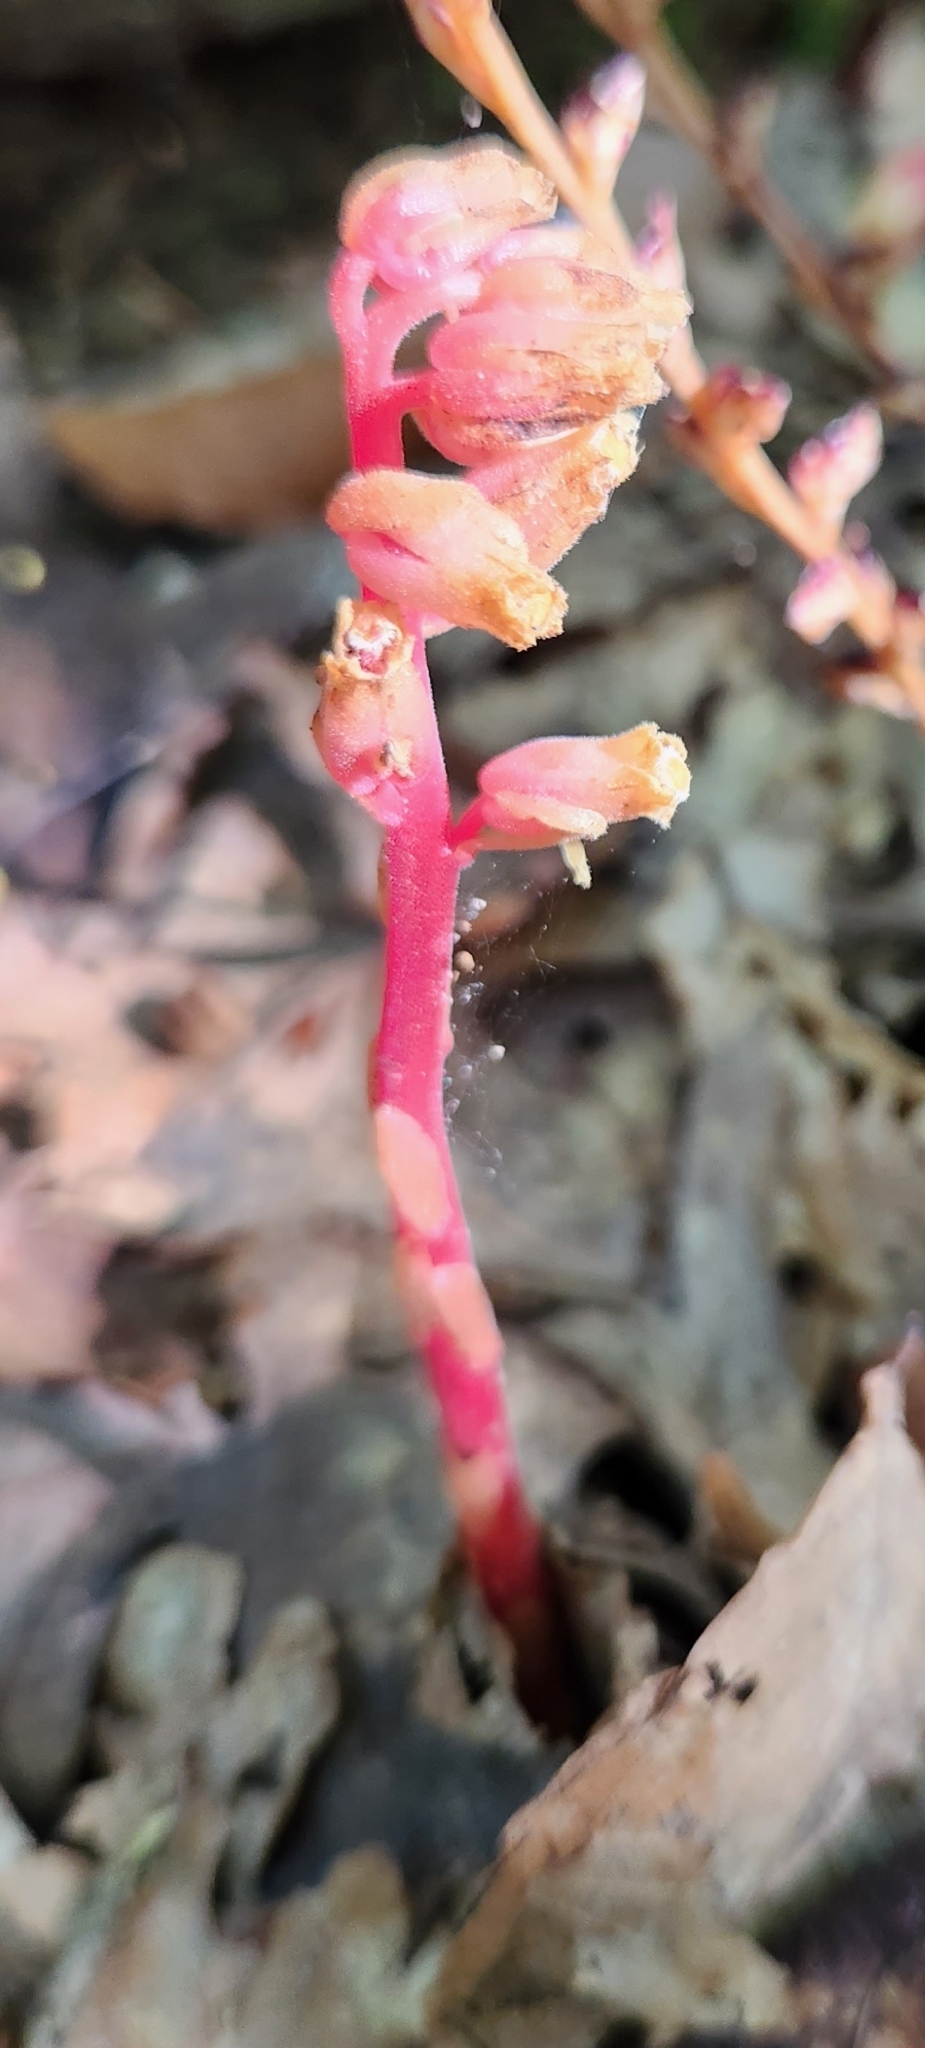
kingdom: Plantae
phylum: Tracheophyta
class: Magnoliopsida
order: Ericales
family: Ericaceae
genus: Hypopitys
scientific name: Hypopitys monotropa
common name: Yellow bird's-nest
